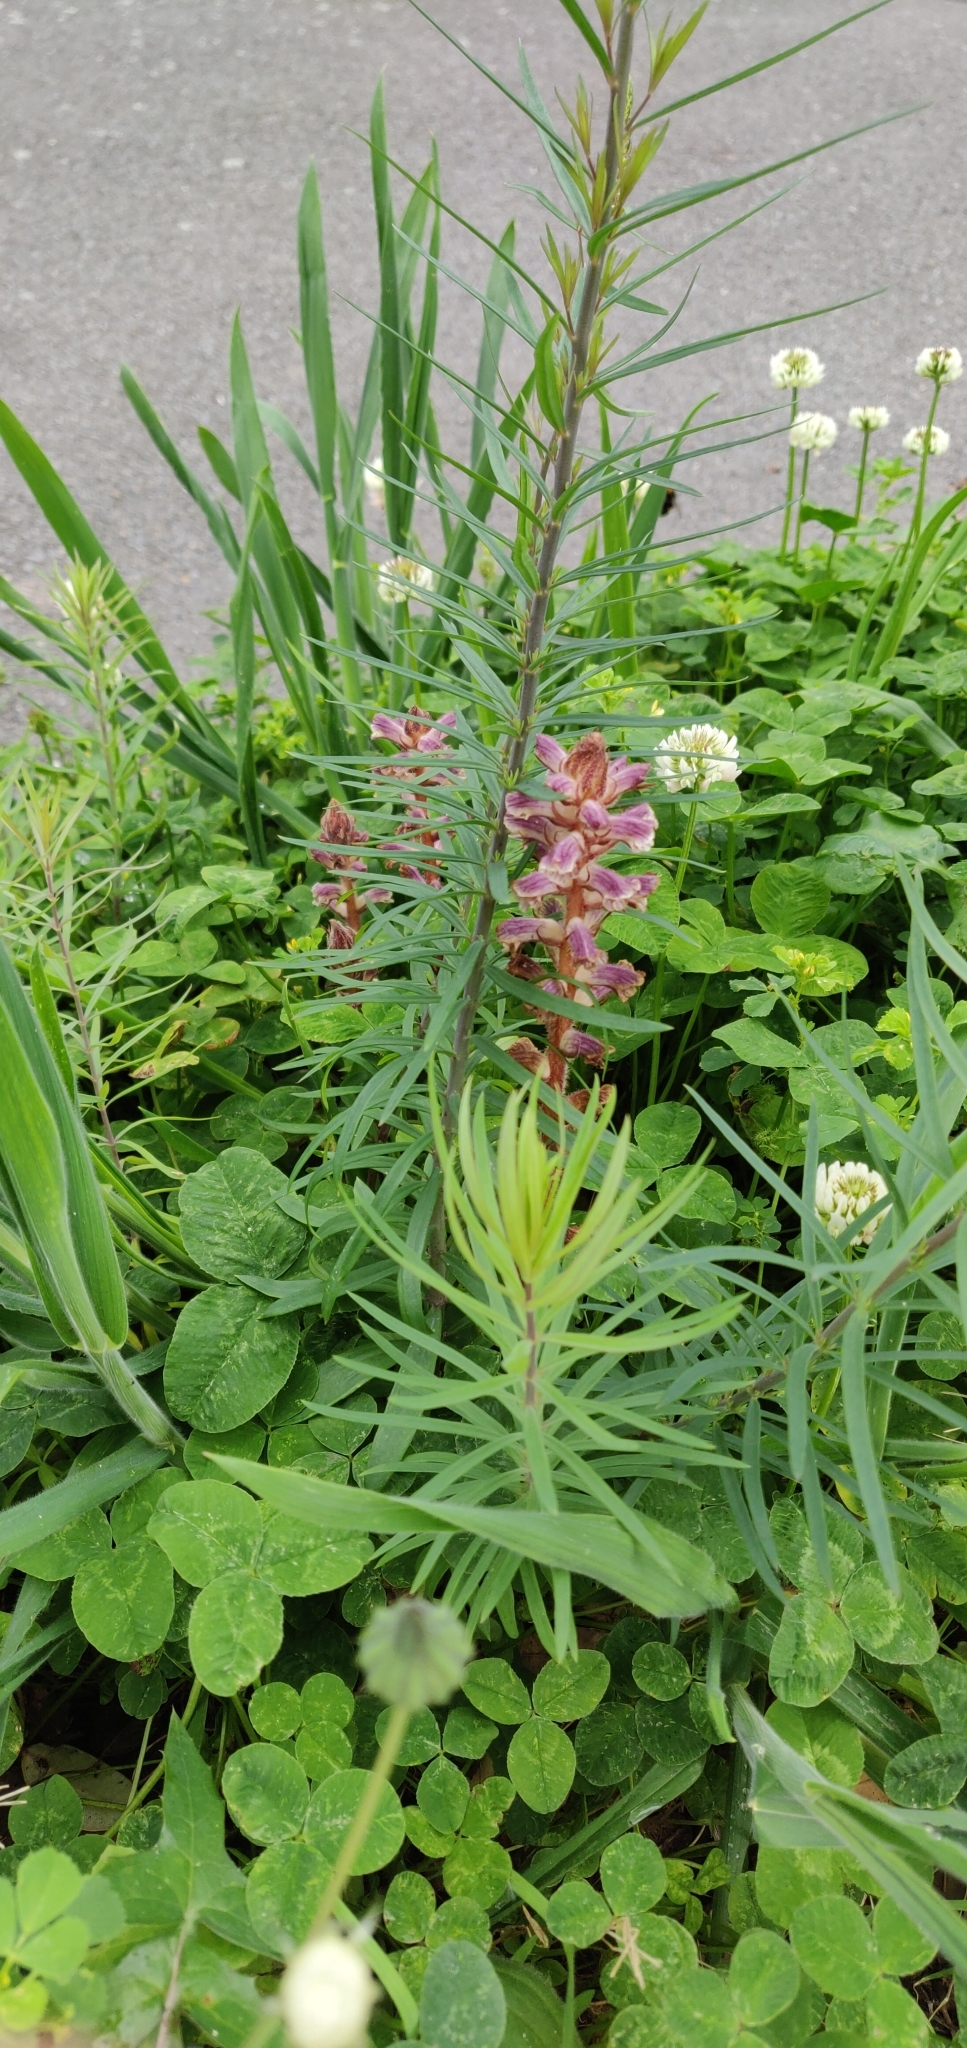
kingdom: Plantae
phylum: Tracheophyta
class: Magnoliopsida
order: Lamiales
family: Orobanchaceae
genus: Orobanche
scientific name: Orobanche minor
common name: Common broomrape
